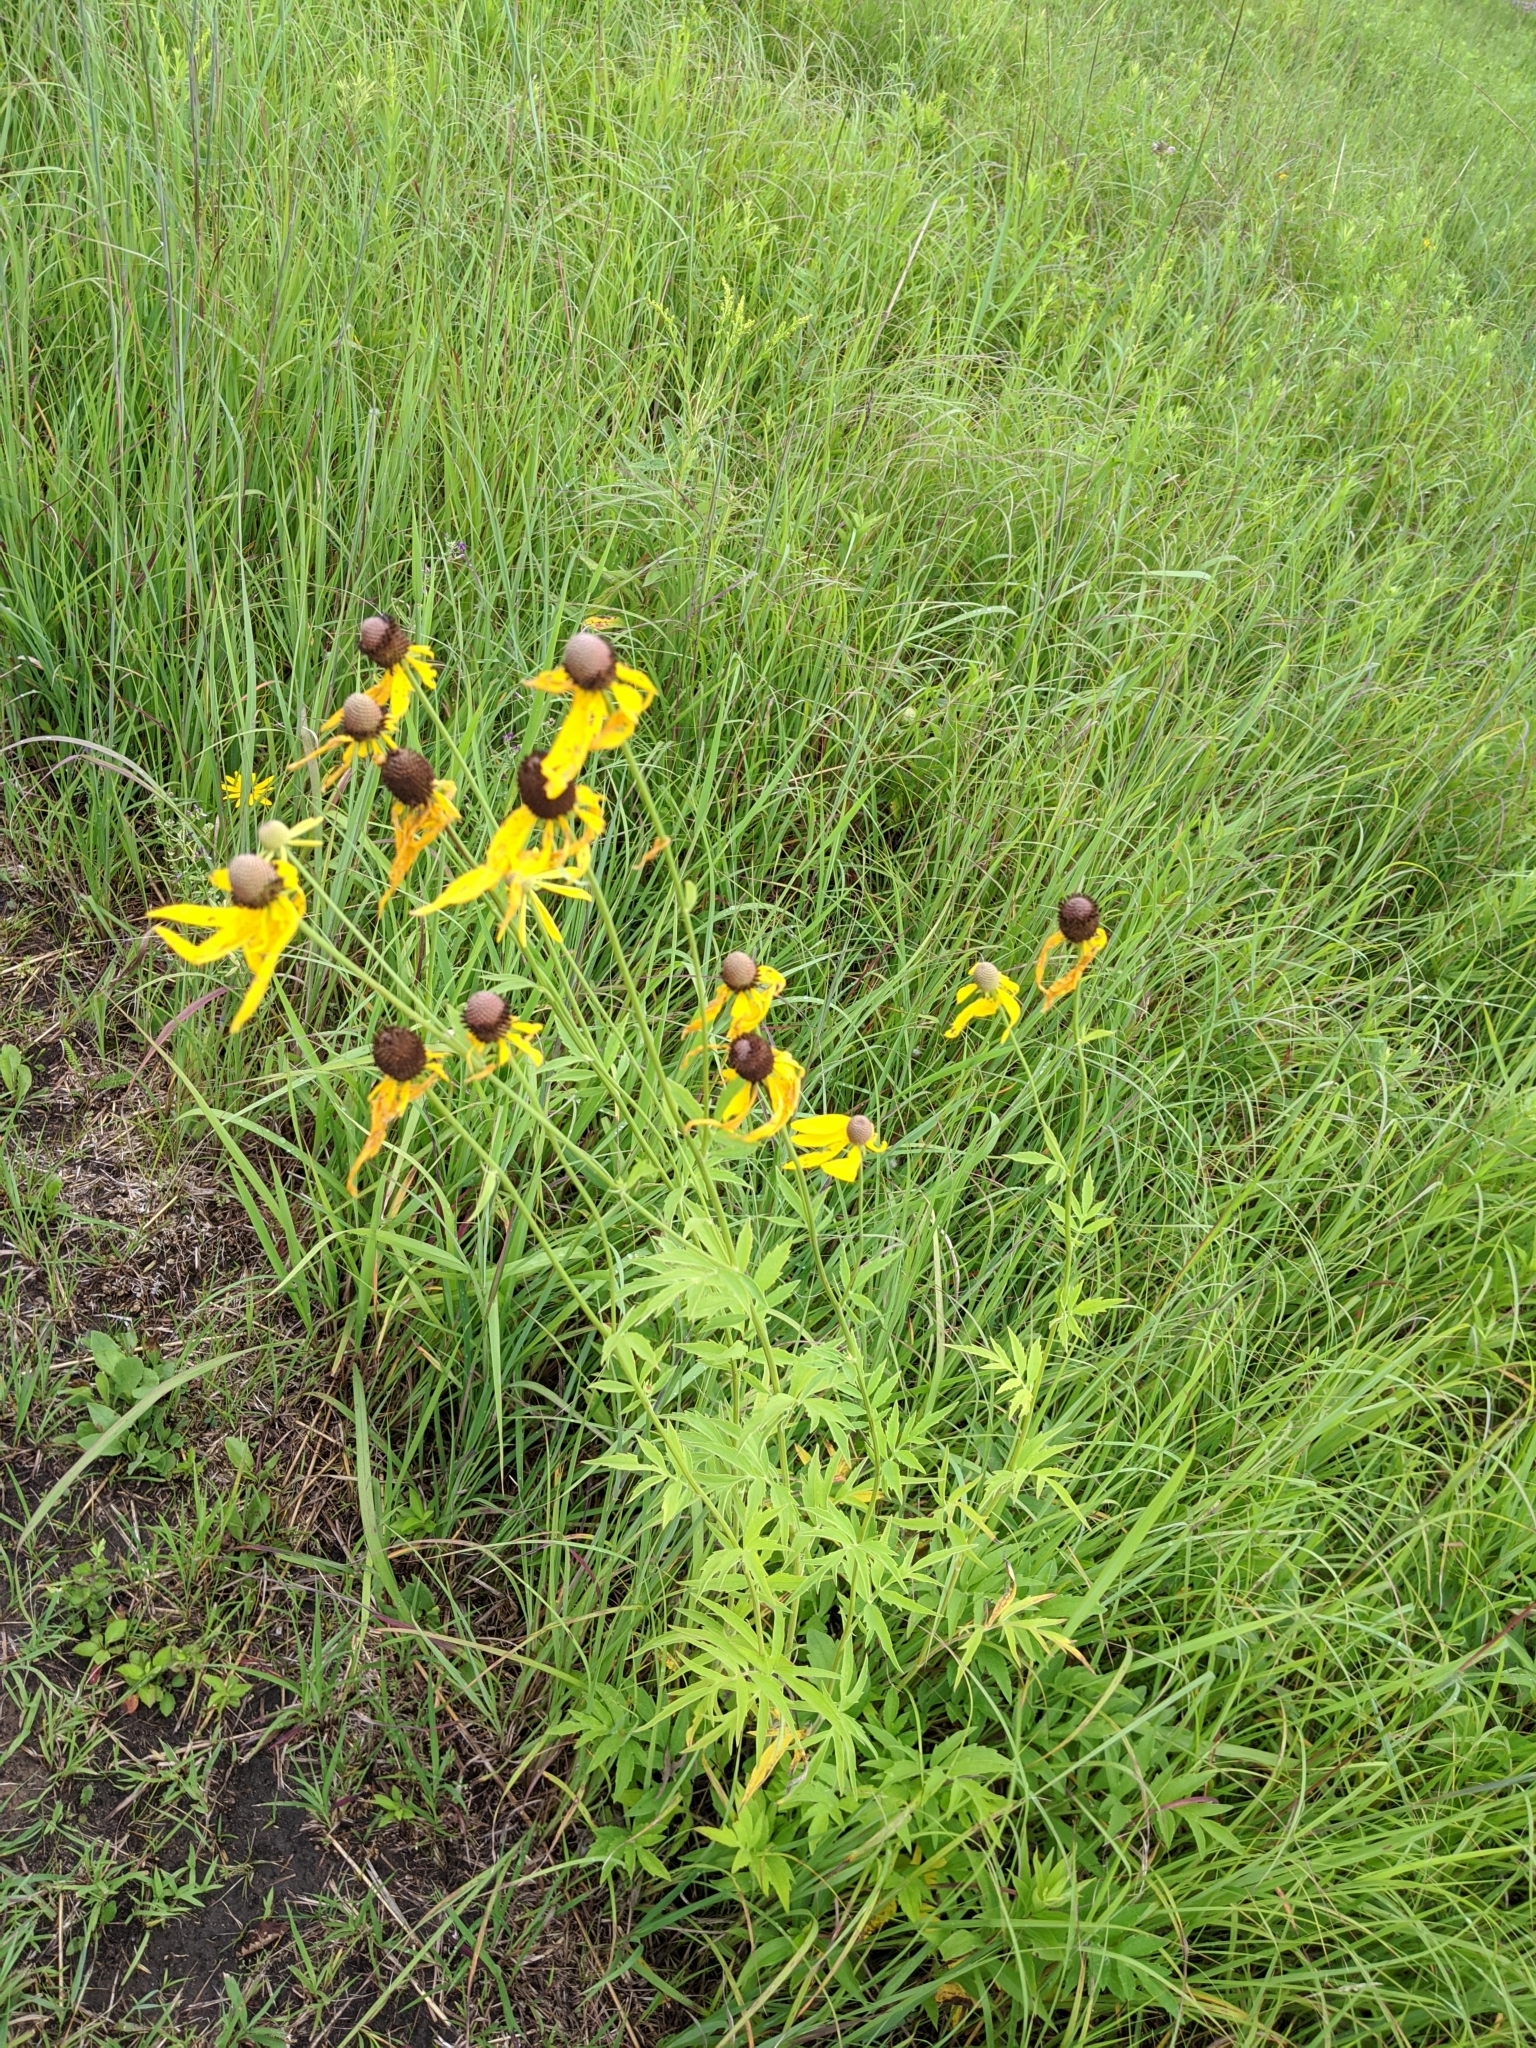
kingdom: Plantae
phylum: Tracheophyta
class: Magnoliopsida
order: Asterales
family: Asteraceae
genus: Ratibida
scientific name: Ratibida pinnata
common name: Drooping prairie-coneflower
